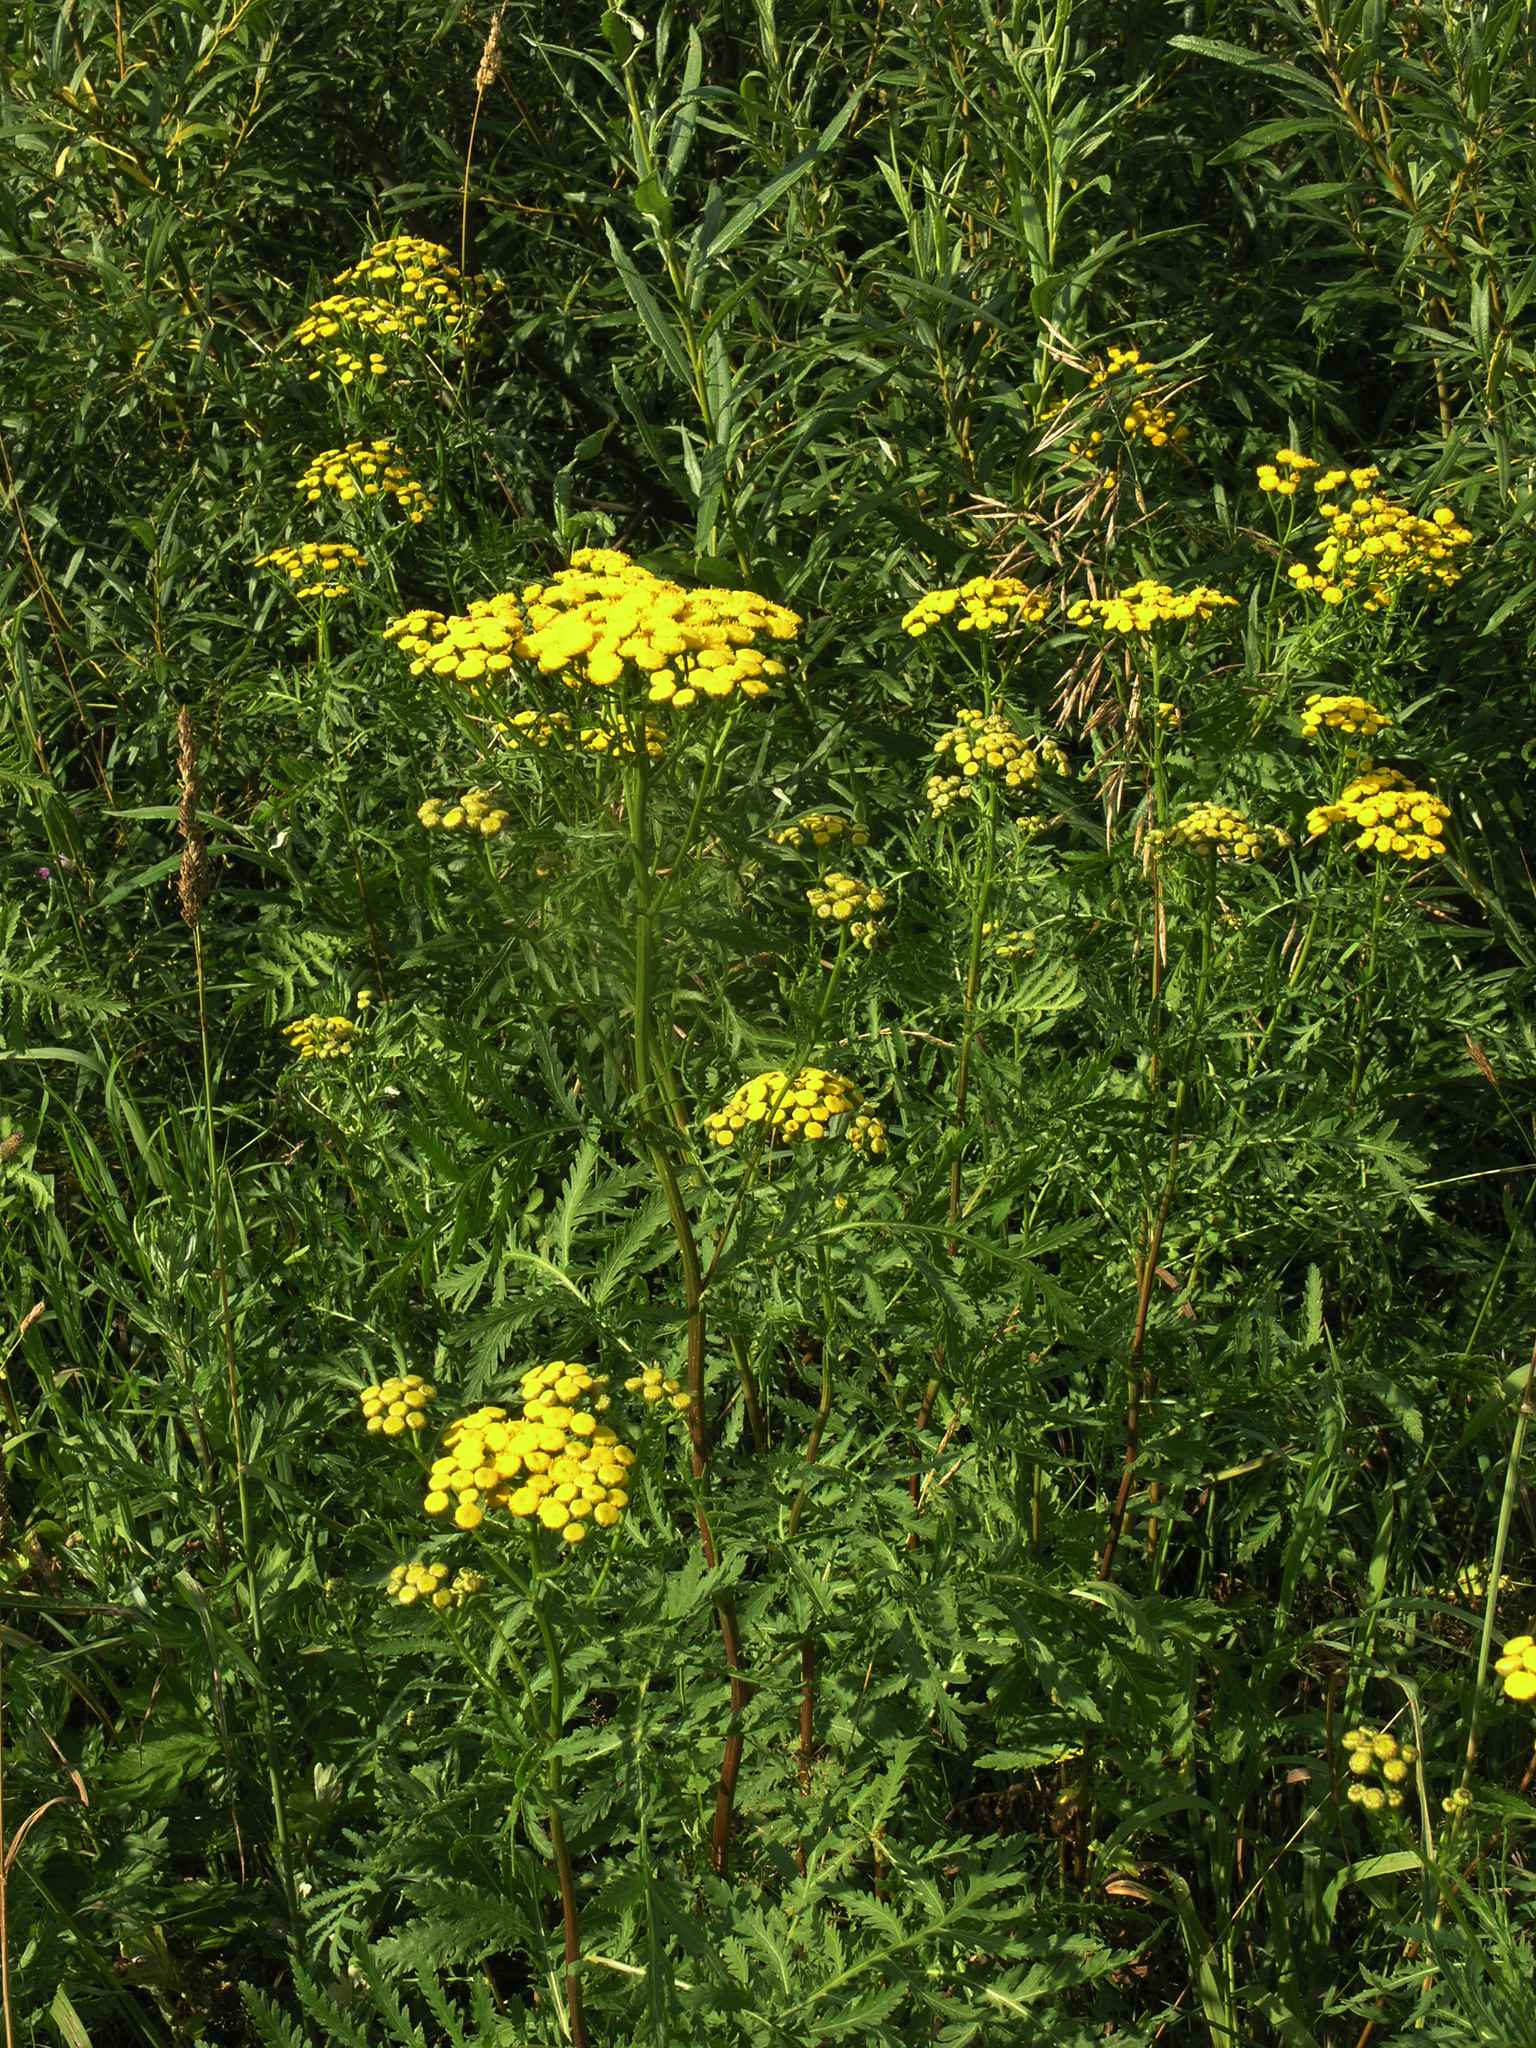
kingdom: Plantae
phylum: Tracheophyta
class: Magnoliopsida
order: Asterales
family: Asteraceae
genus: Tanacetum
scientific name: Tanacetum vulgare
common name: Common tansy
